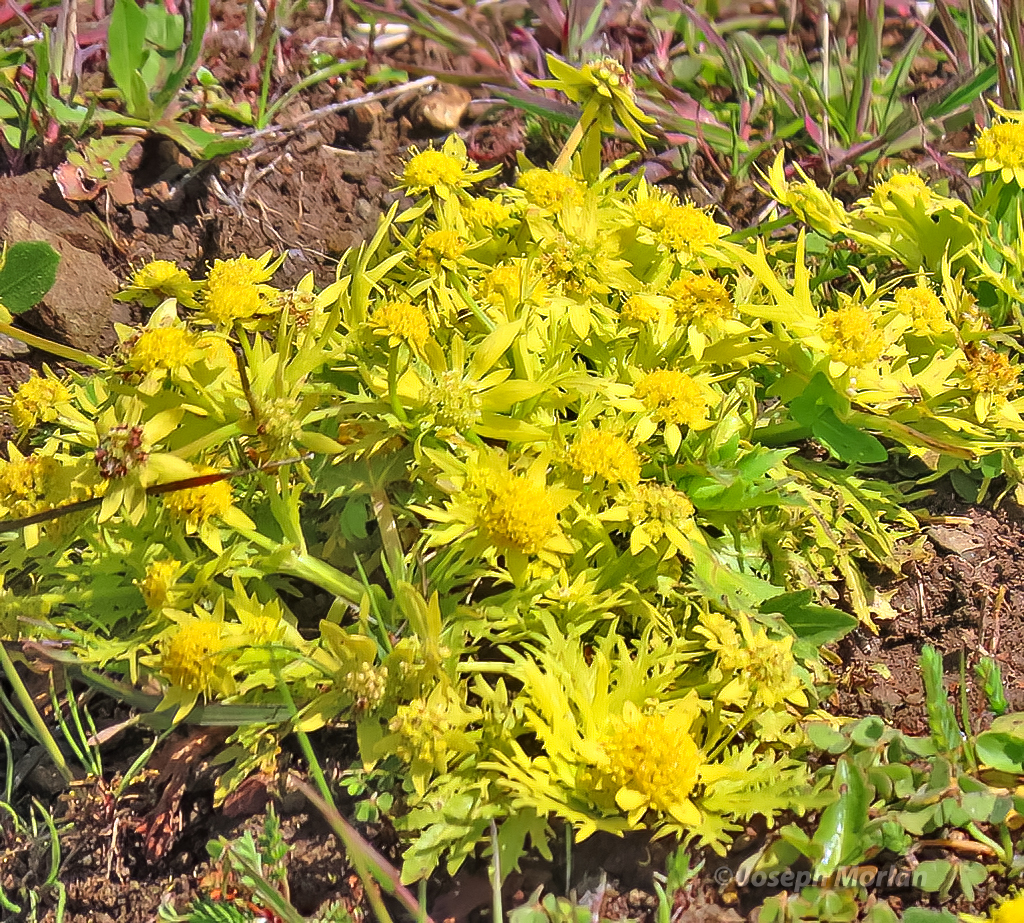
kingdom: Plantae
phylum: Tracheophyta
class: Magnoliopsida
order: Apiales
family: Apiaceae
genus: Sanicula
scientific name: Sanicula arctopoides
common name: Footsteps-of-spring
